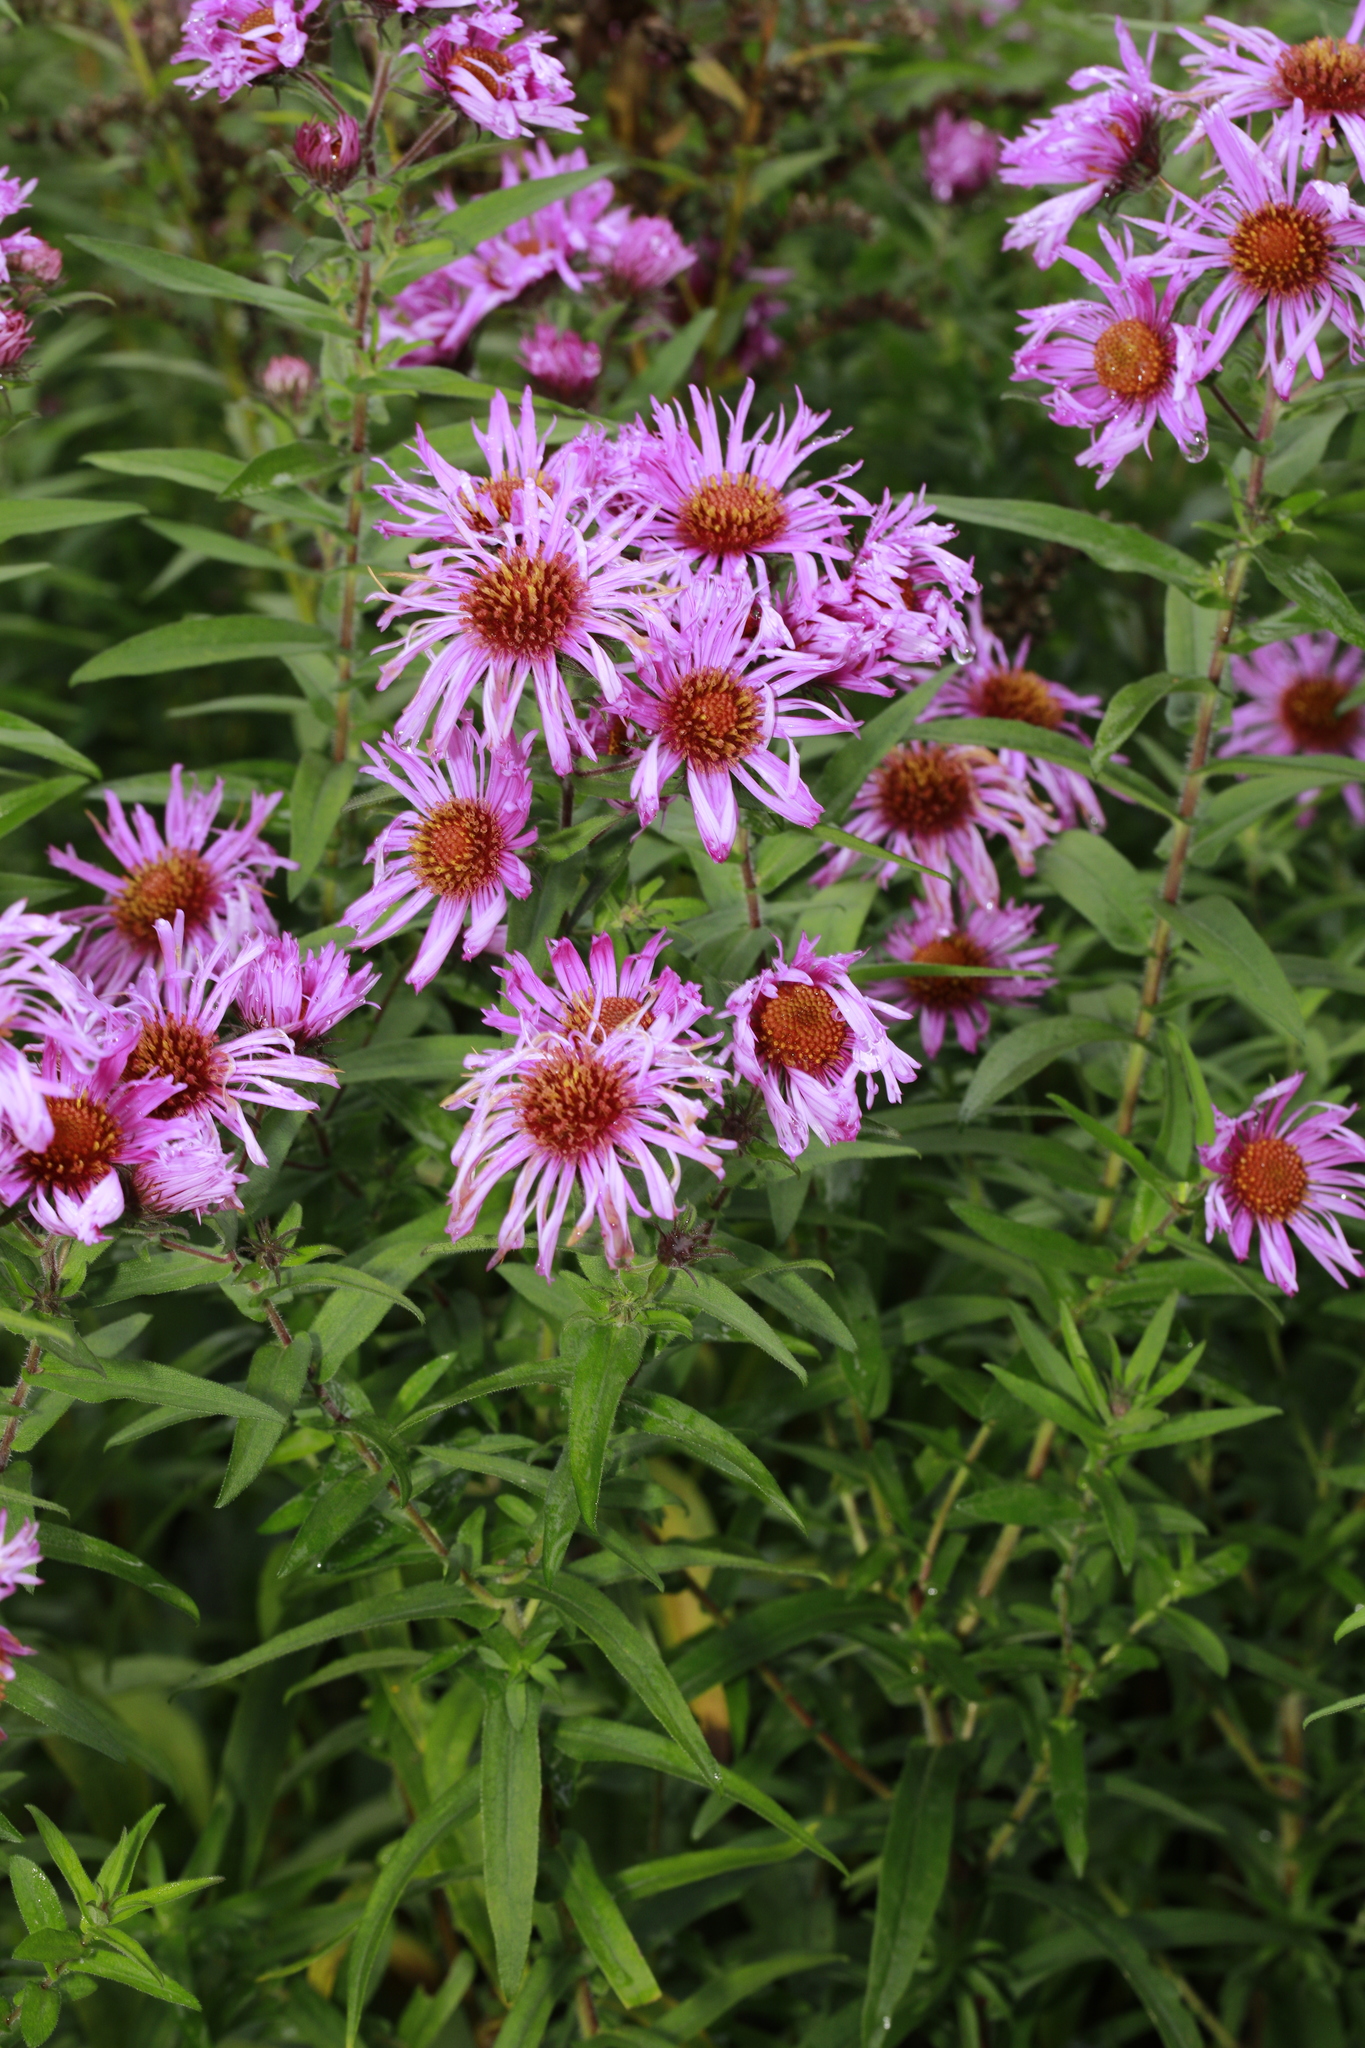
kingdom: Plantae
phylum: Tracheophyta
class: Magnoliopsida
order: Asterales
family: Asteraceae
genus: Symphyotrichum
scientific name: Symphyotrichum novae-angliae
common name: Michaelmas daisy
